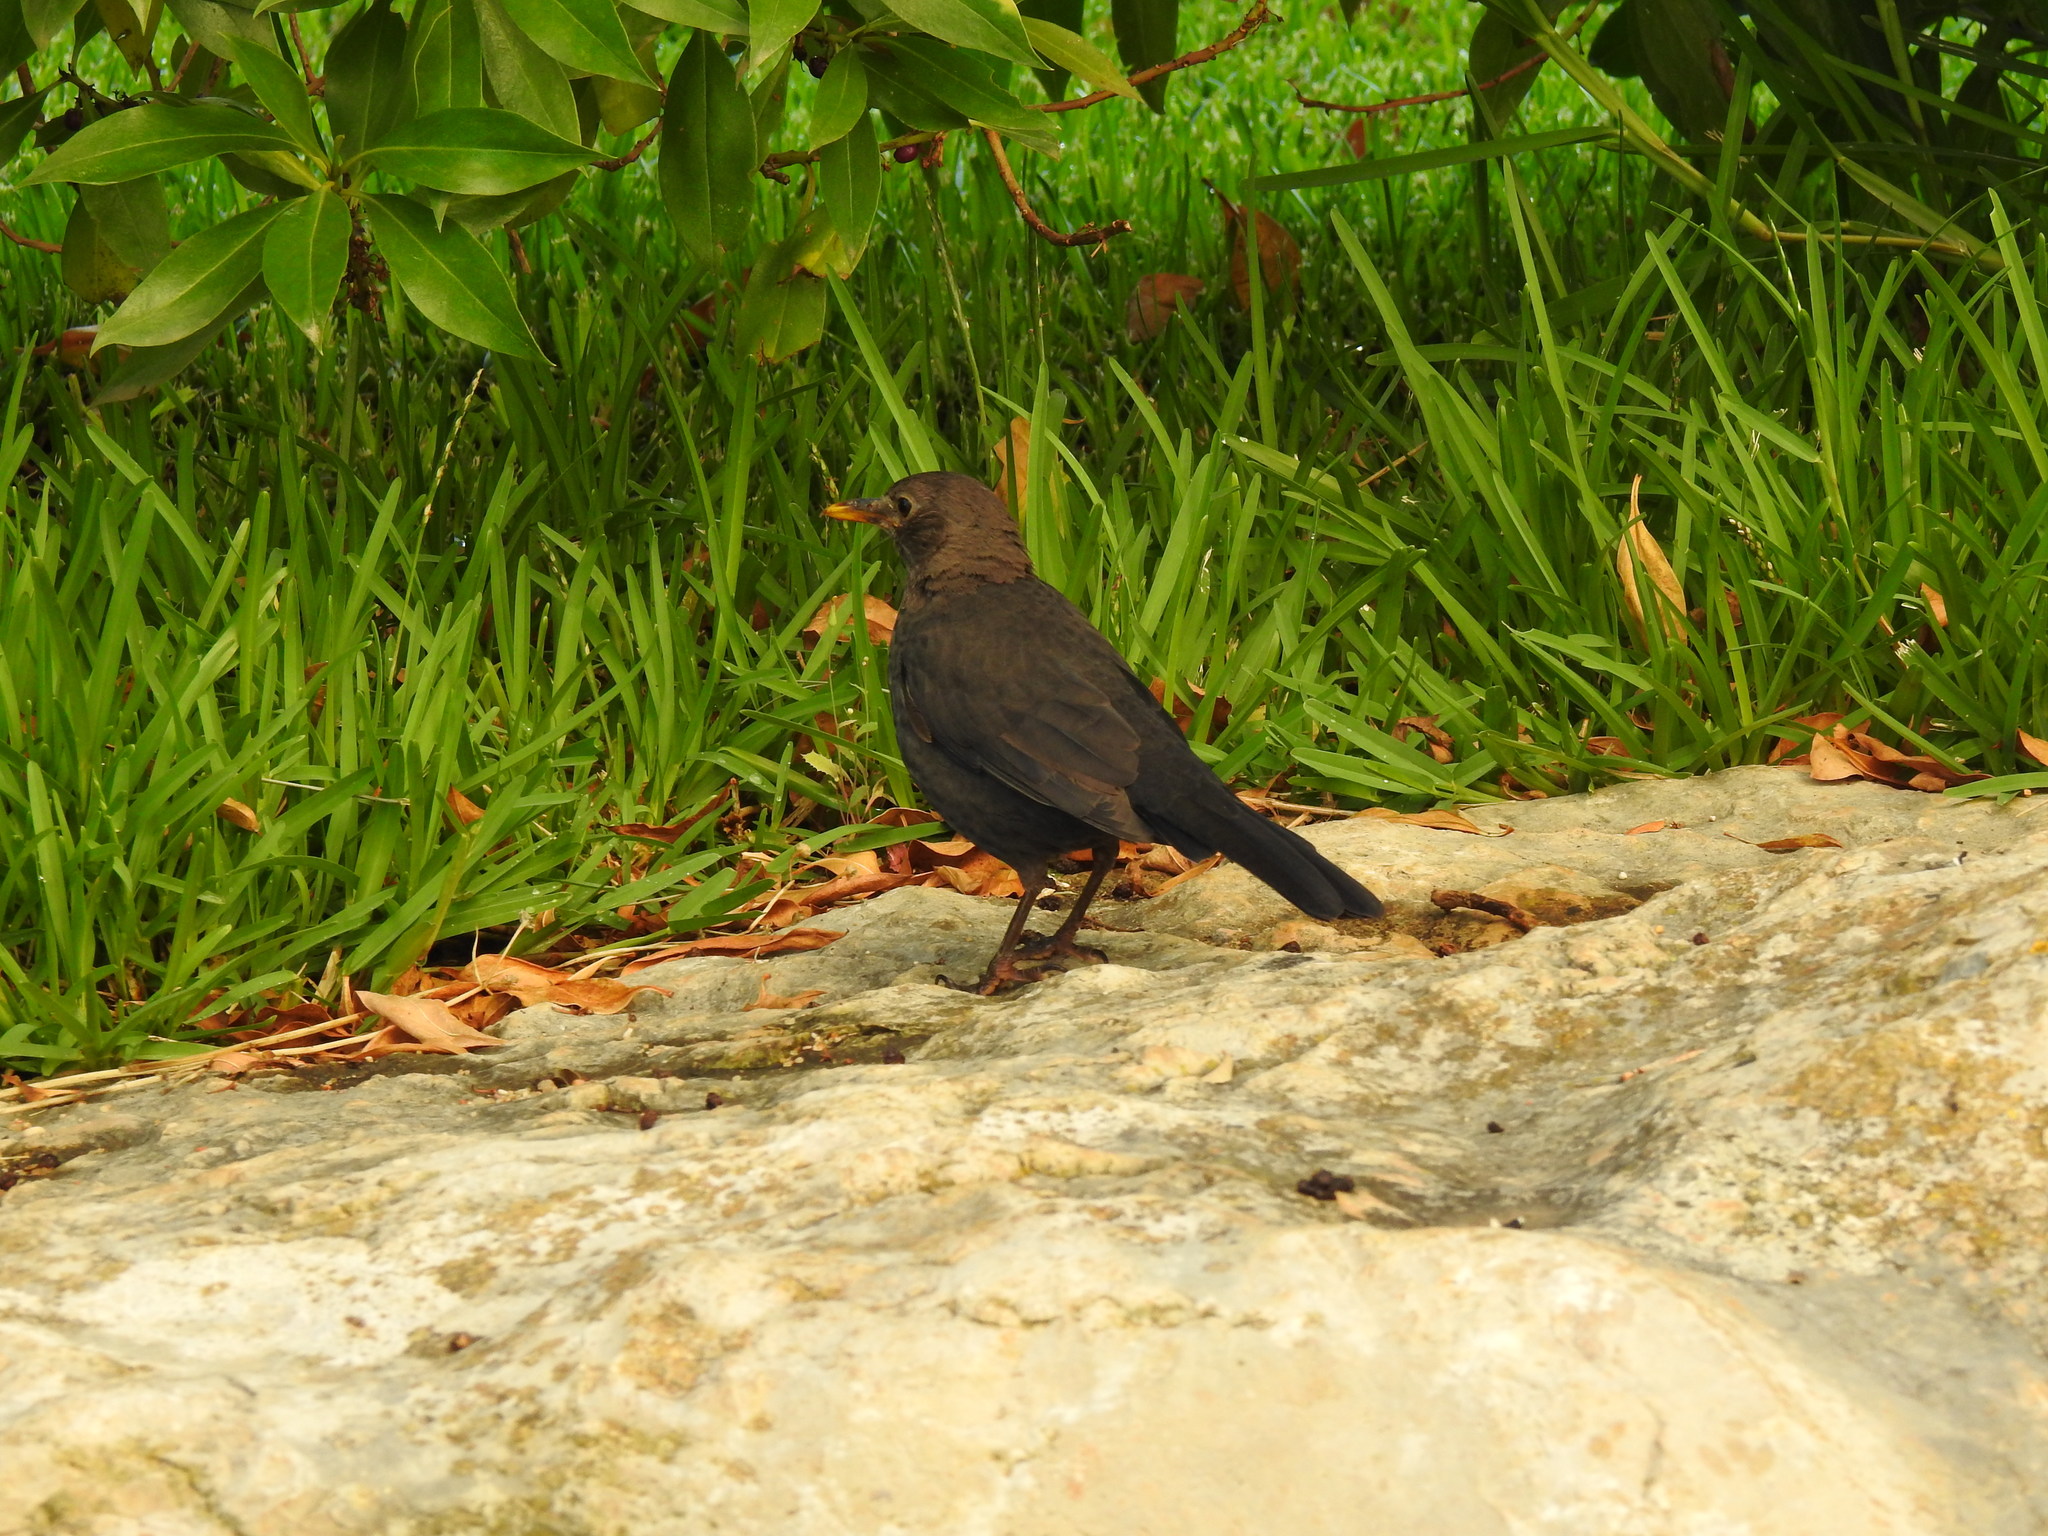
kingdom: Animalia
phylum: Chordata
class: Aves
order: Passeriformes
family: Turdidae
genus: Turdus
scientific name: Turdus merula
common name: Common blackbird
